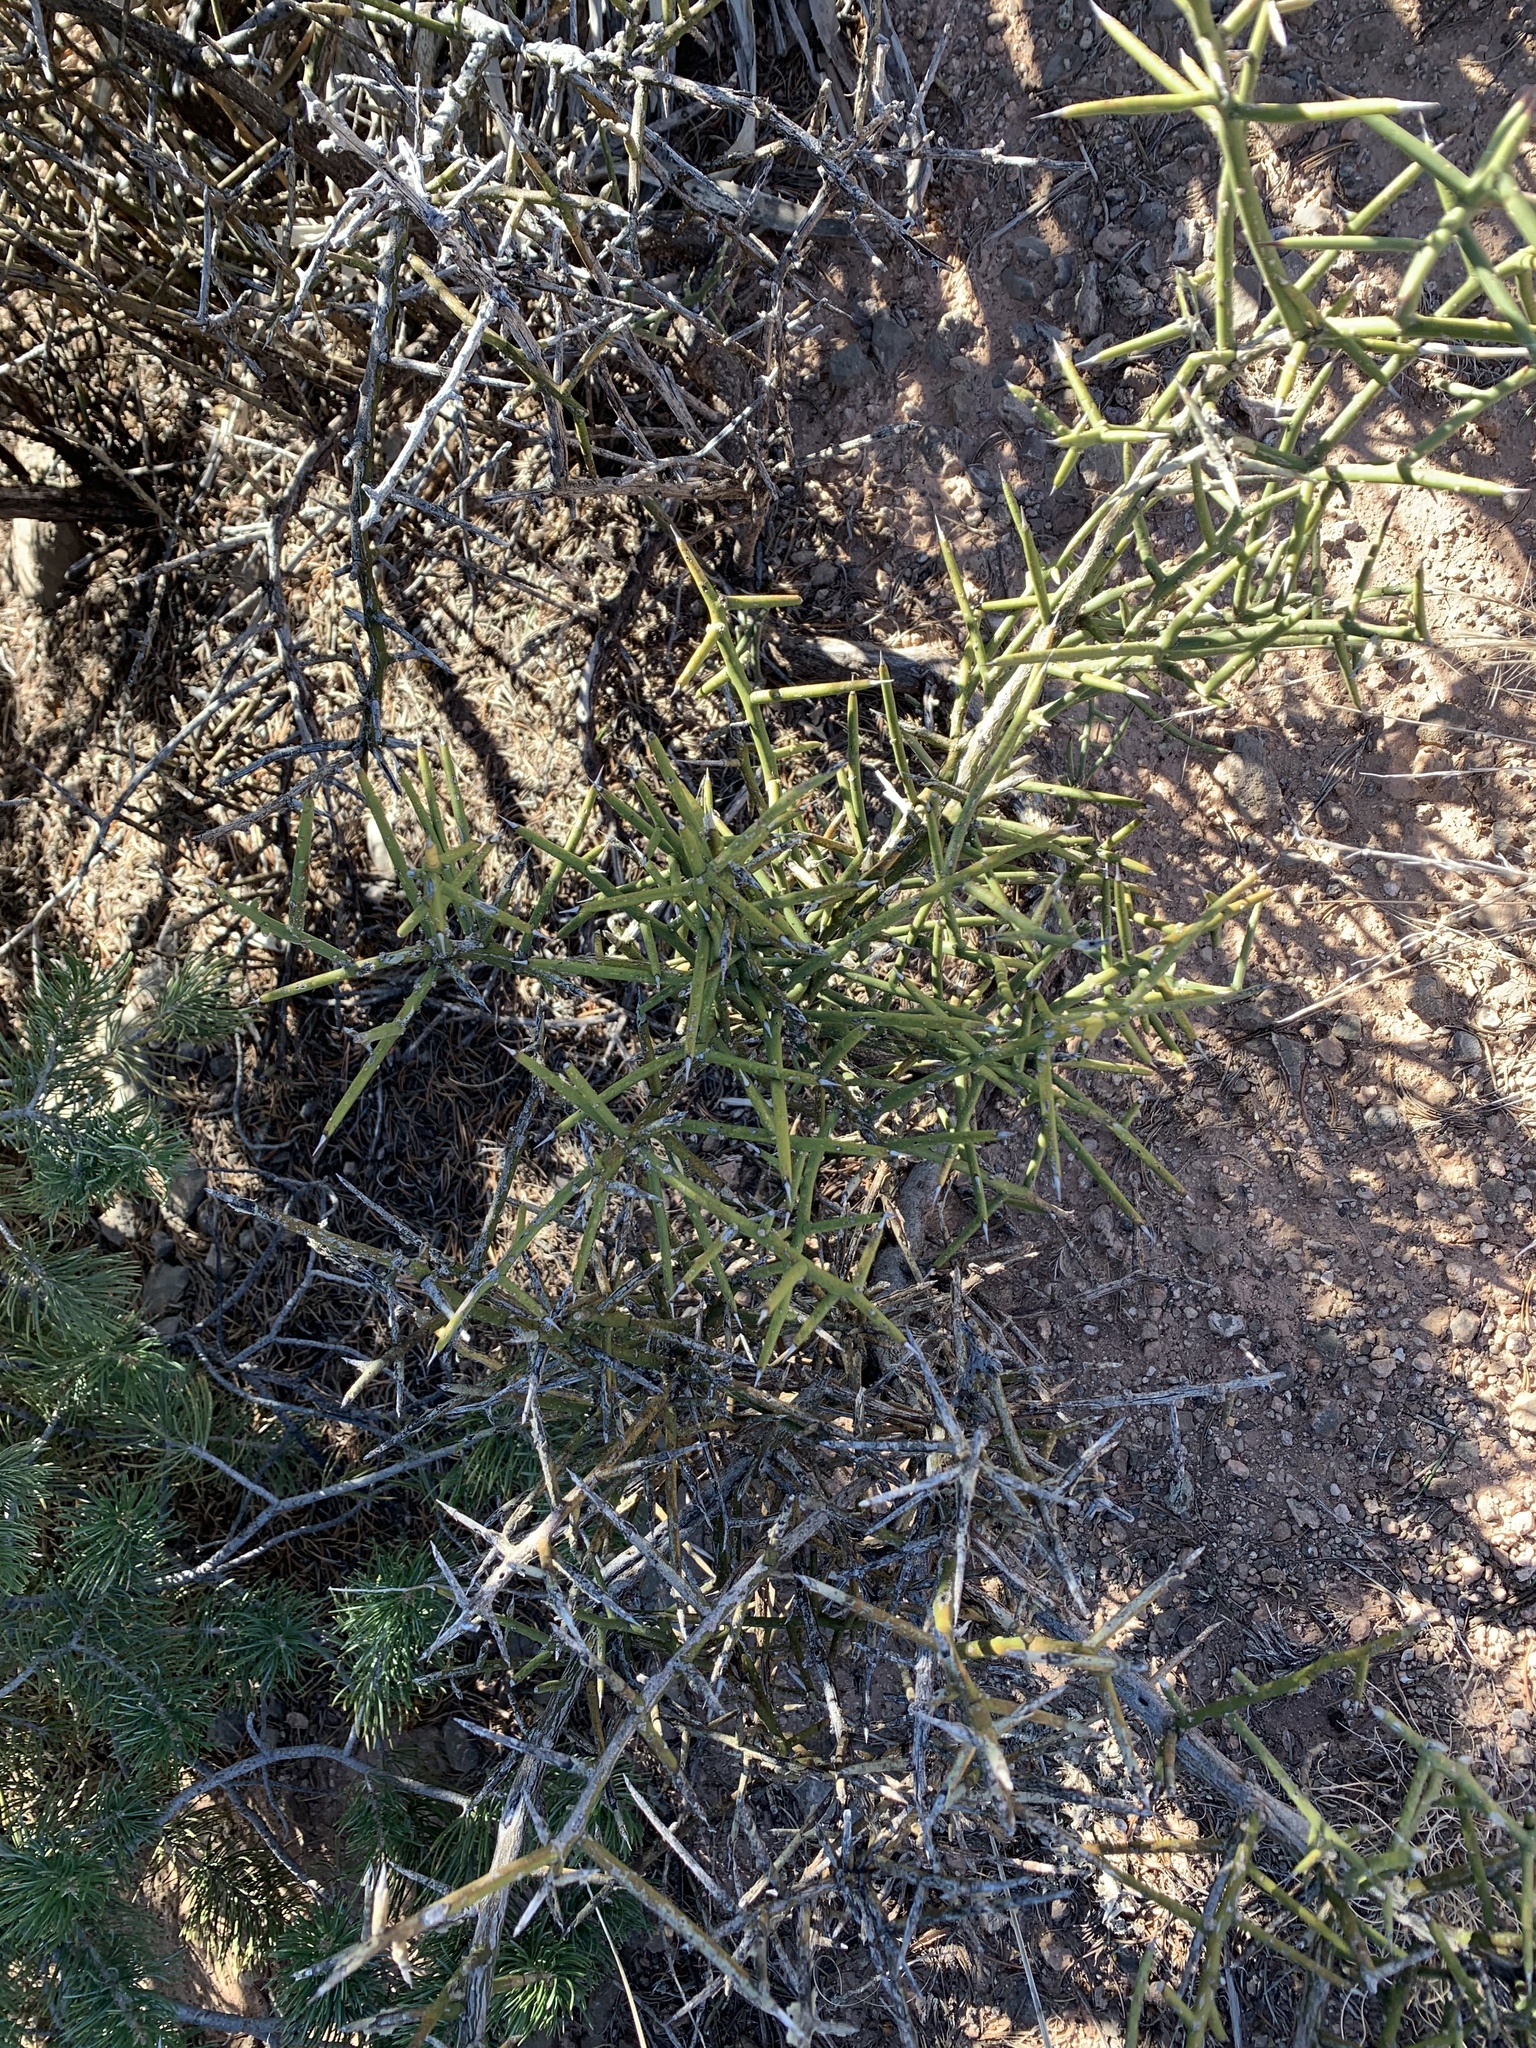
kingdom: Plantae
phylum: Tracheophyta
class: Magnoliopsida
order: Brassicales
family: Koeberliniaceae
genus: Koeberlinia
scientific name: Koeberlinia spinosa
